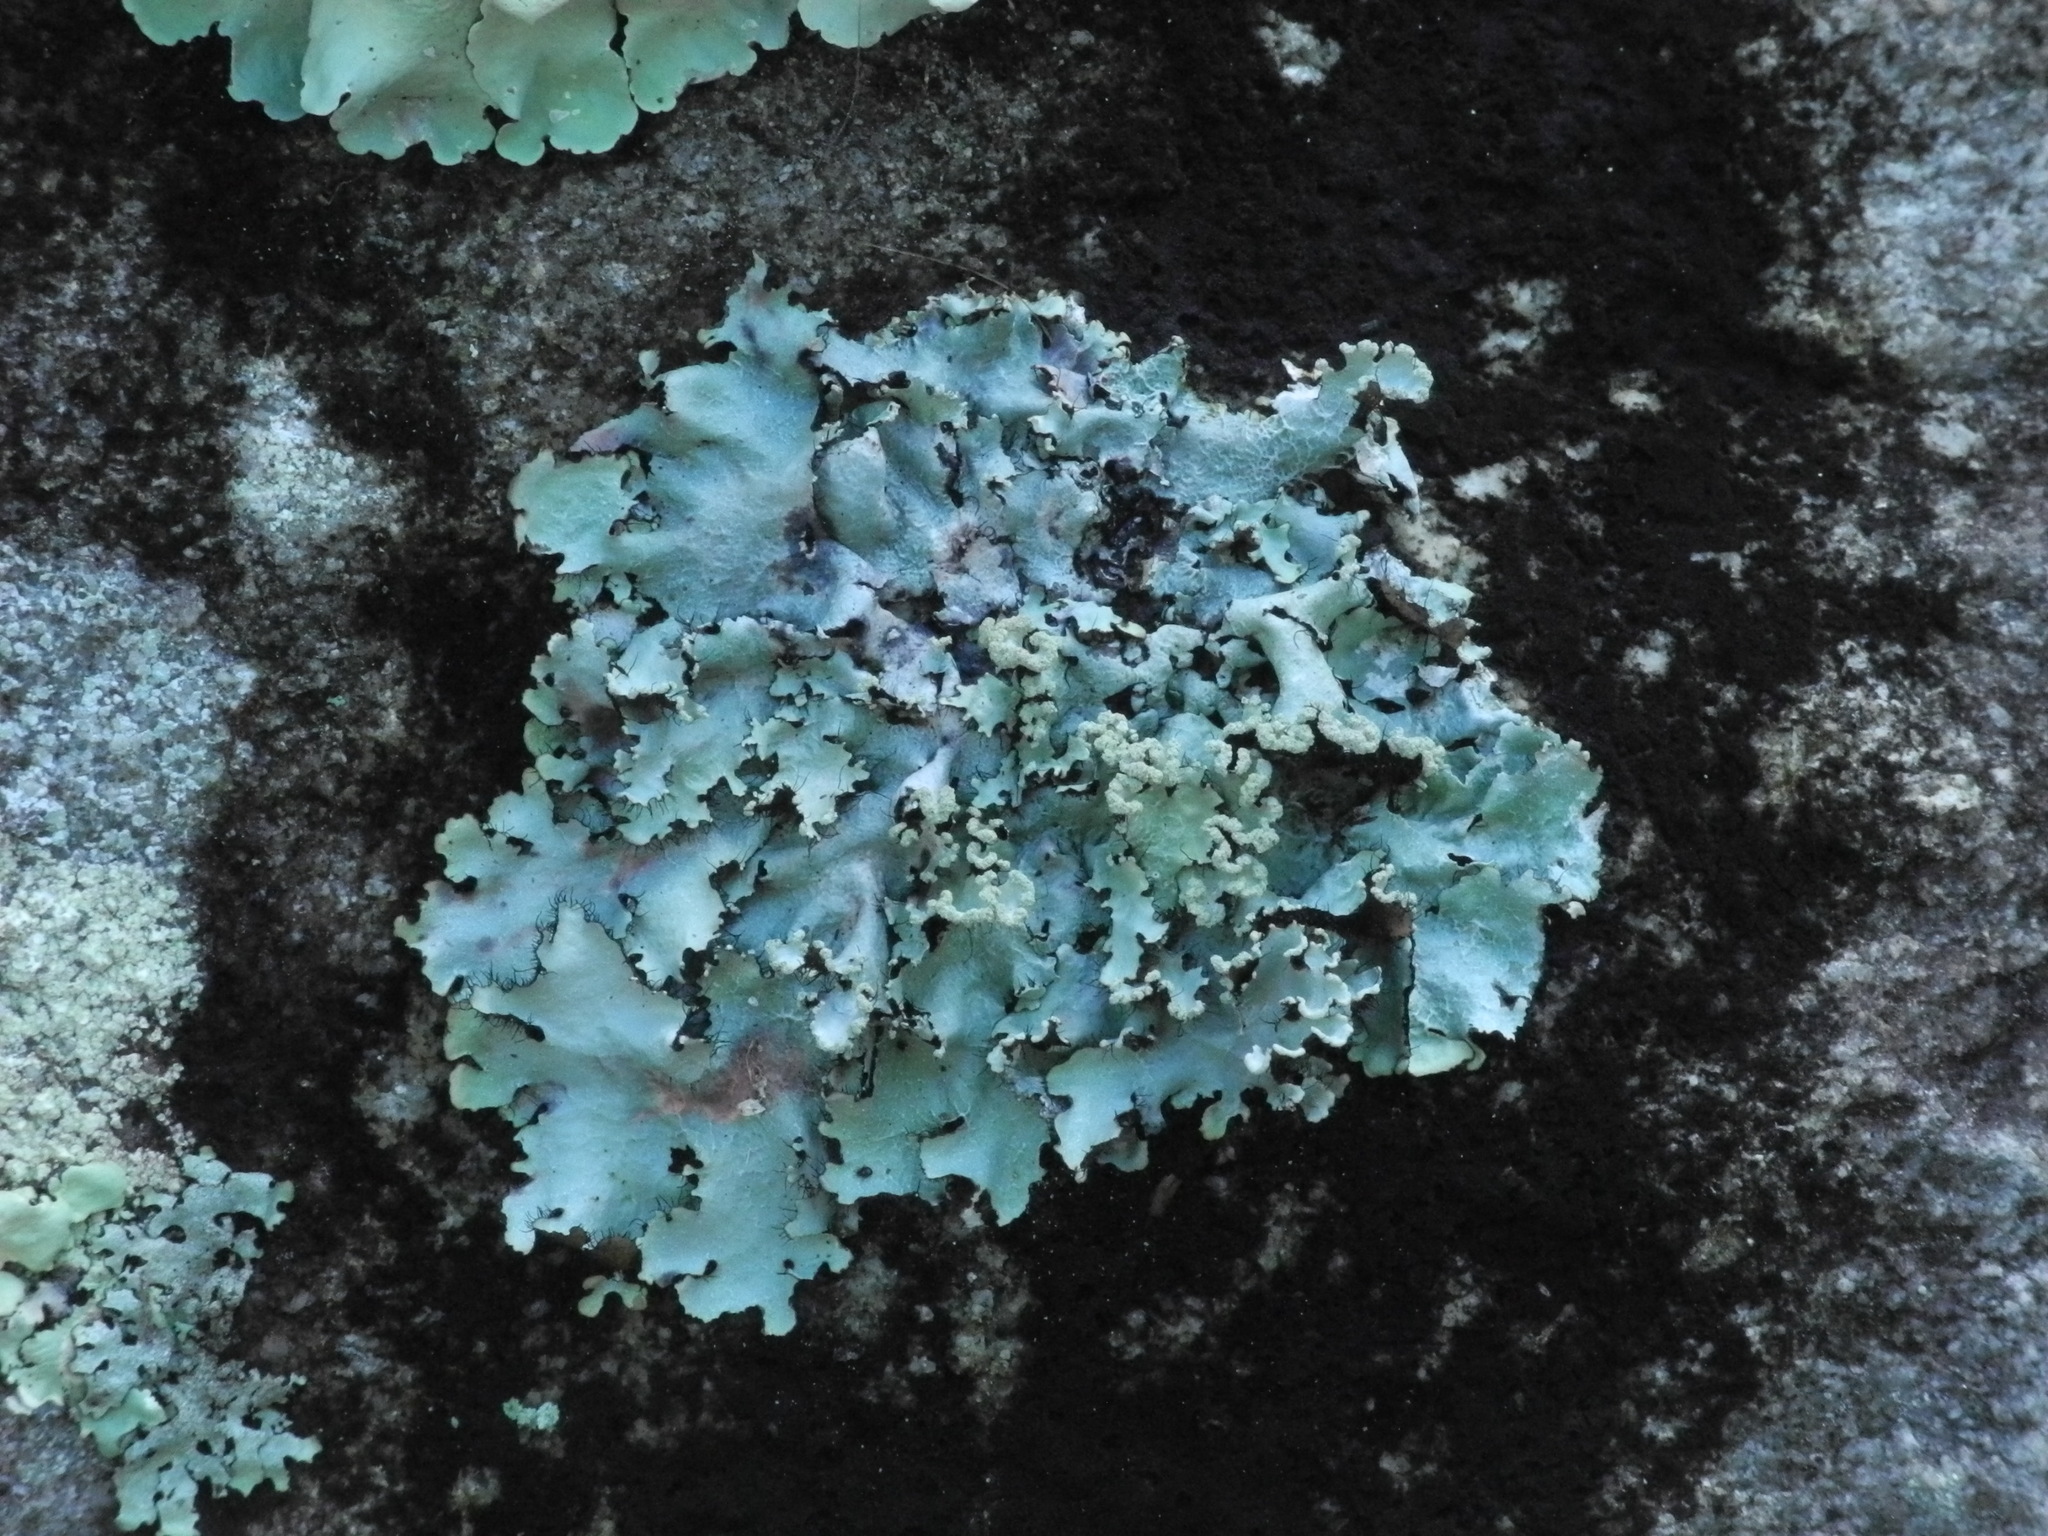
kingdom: Fungi
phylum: Ascomycota
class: Lecanoromycetes
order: Lecanorales
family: Parmeliaceae
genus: Parmotrema
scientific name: Parmotrema reticulatum
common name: Black sheet lichen
